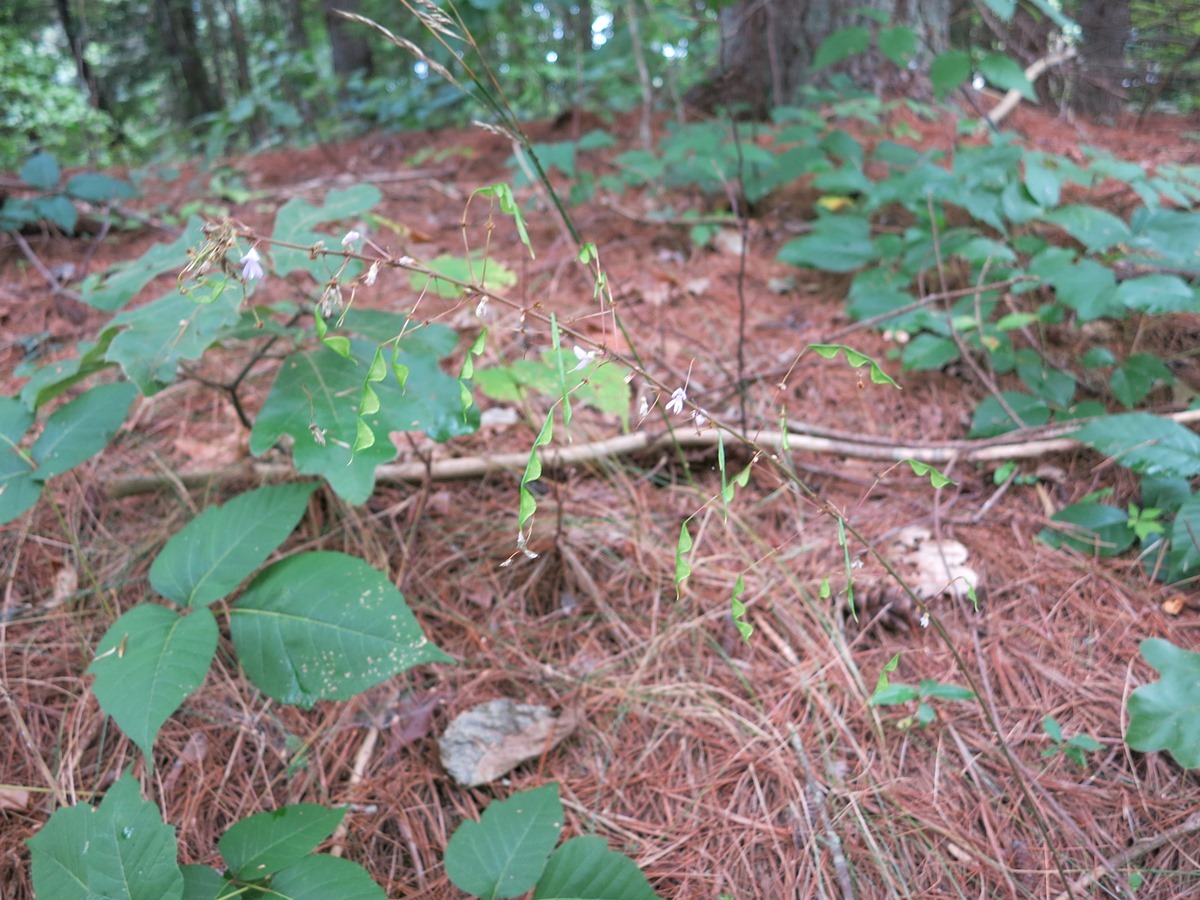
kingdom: Plantae
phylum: Tracheophyta
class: Magnoliopsida
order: Fabales
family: Fabaceae
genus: Hylodesmum
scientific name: Hylodesmum nudiflorum
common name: Bare-stemmed tick-trefoil
